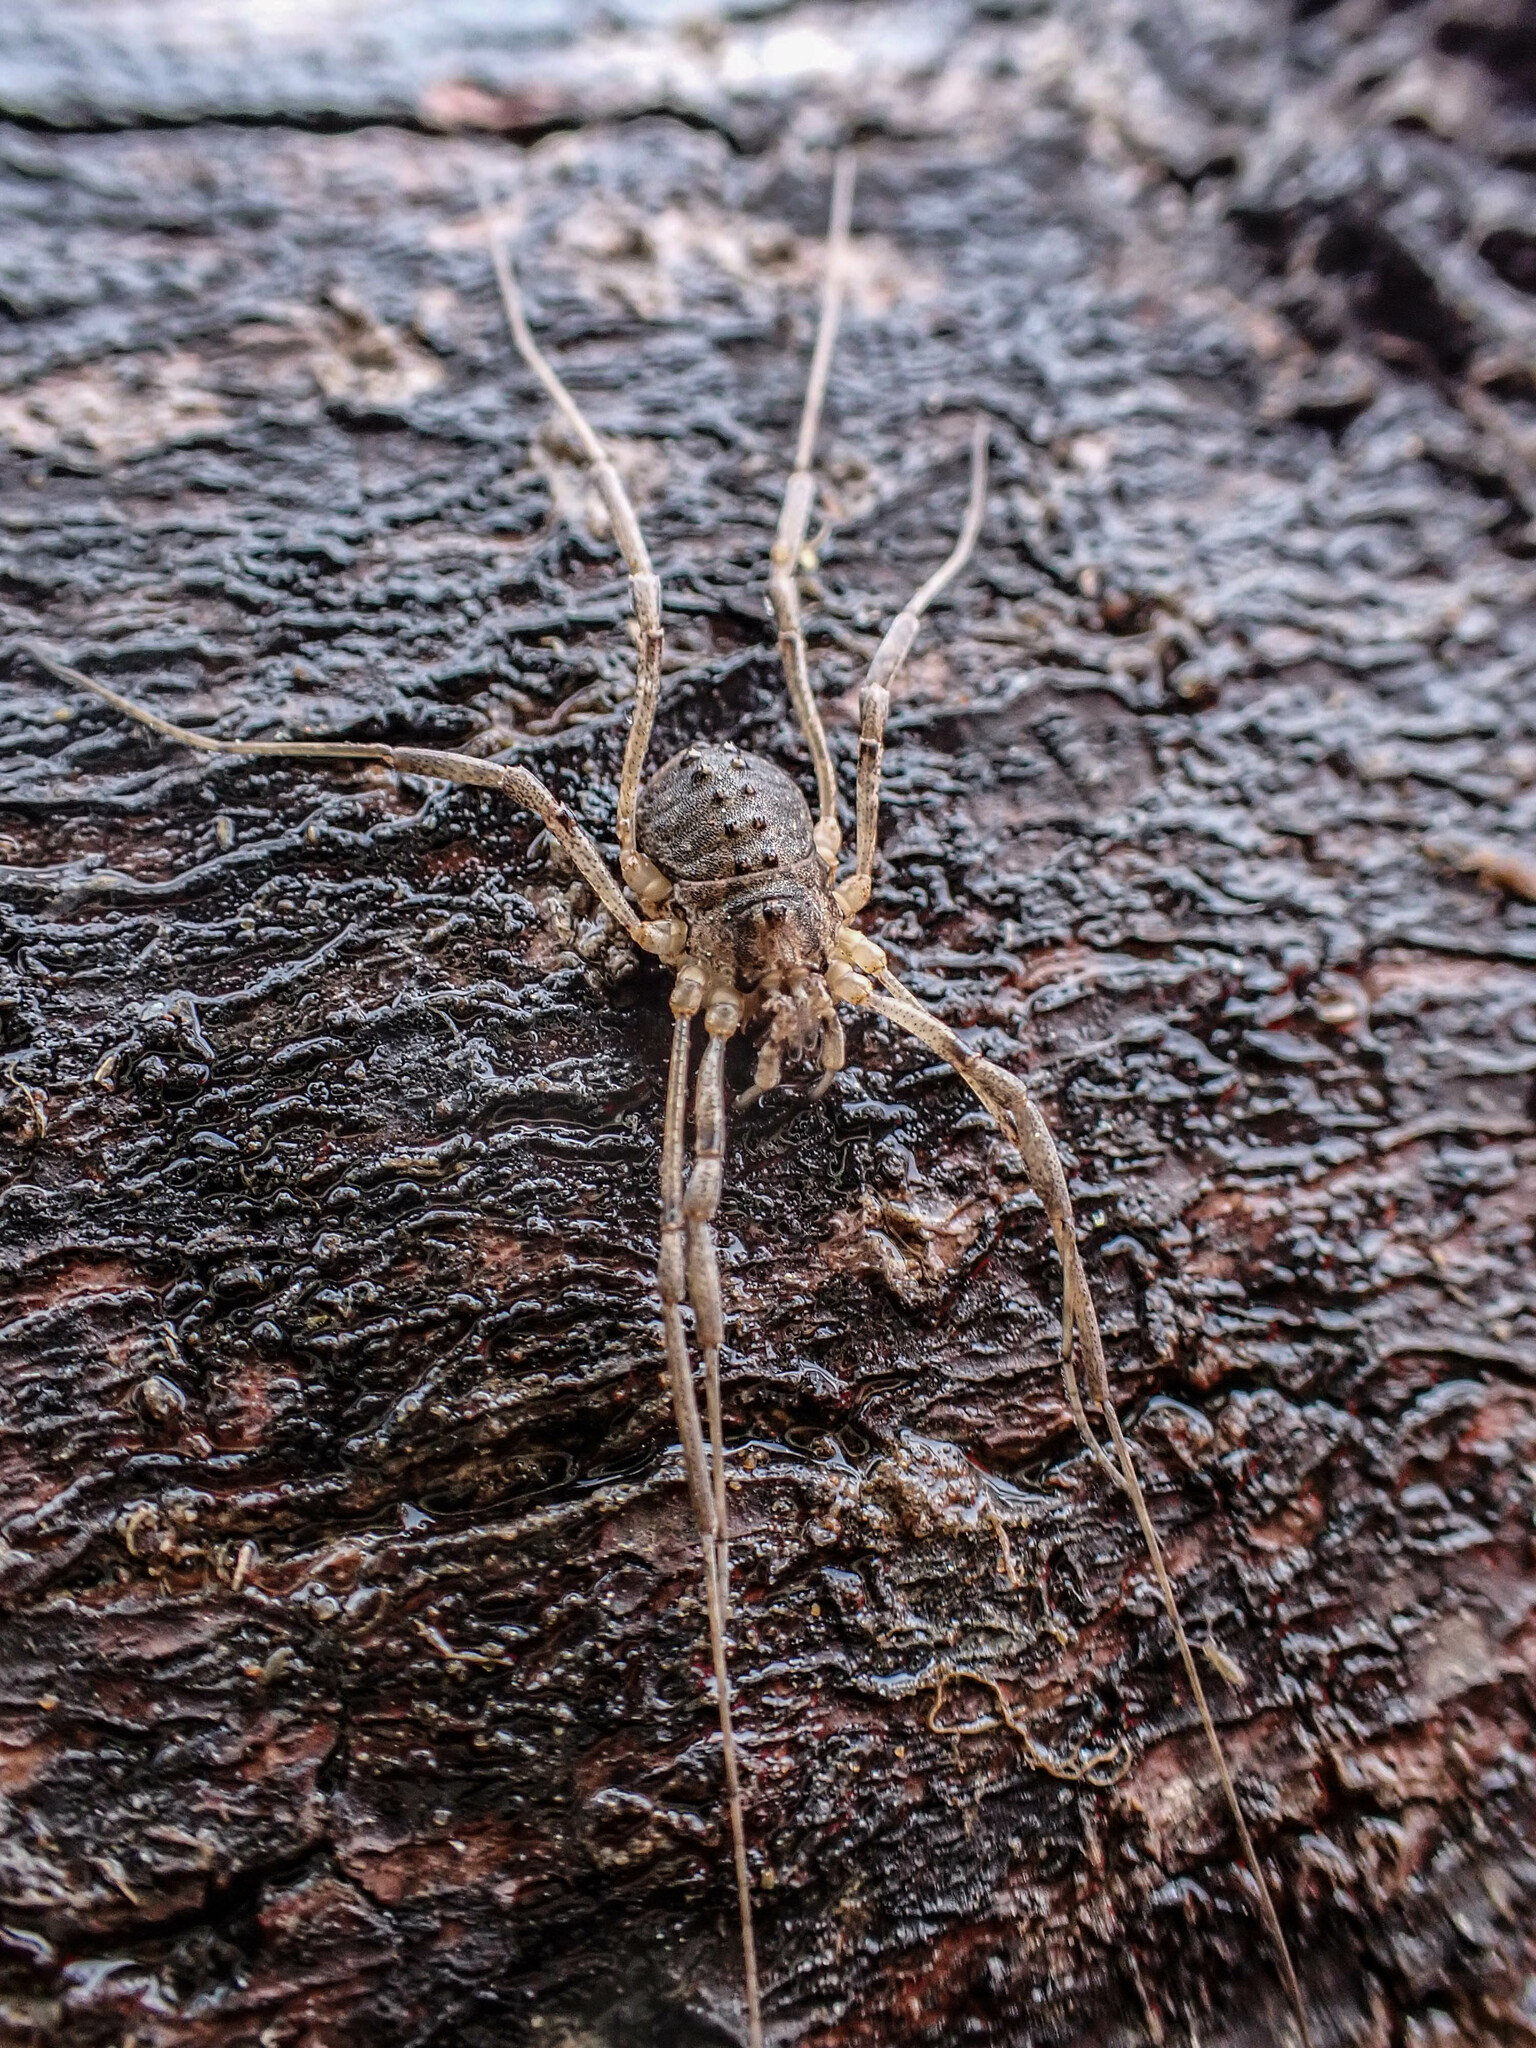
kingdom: Animalia
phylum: Arthropoda
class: Arachnida
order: Opiliones
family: Protolophidae
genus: Protolophus
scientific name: Protolophus singularis
